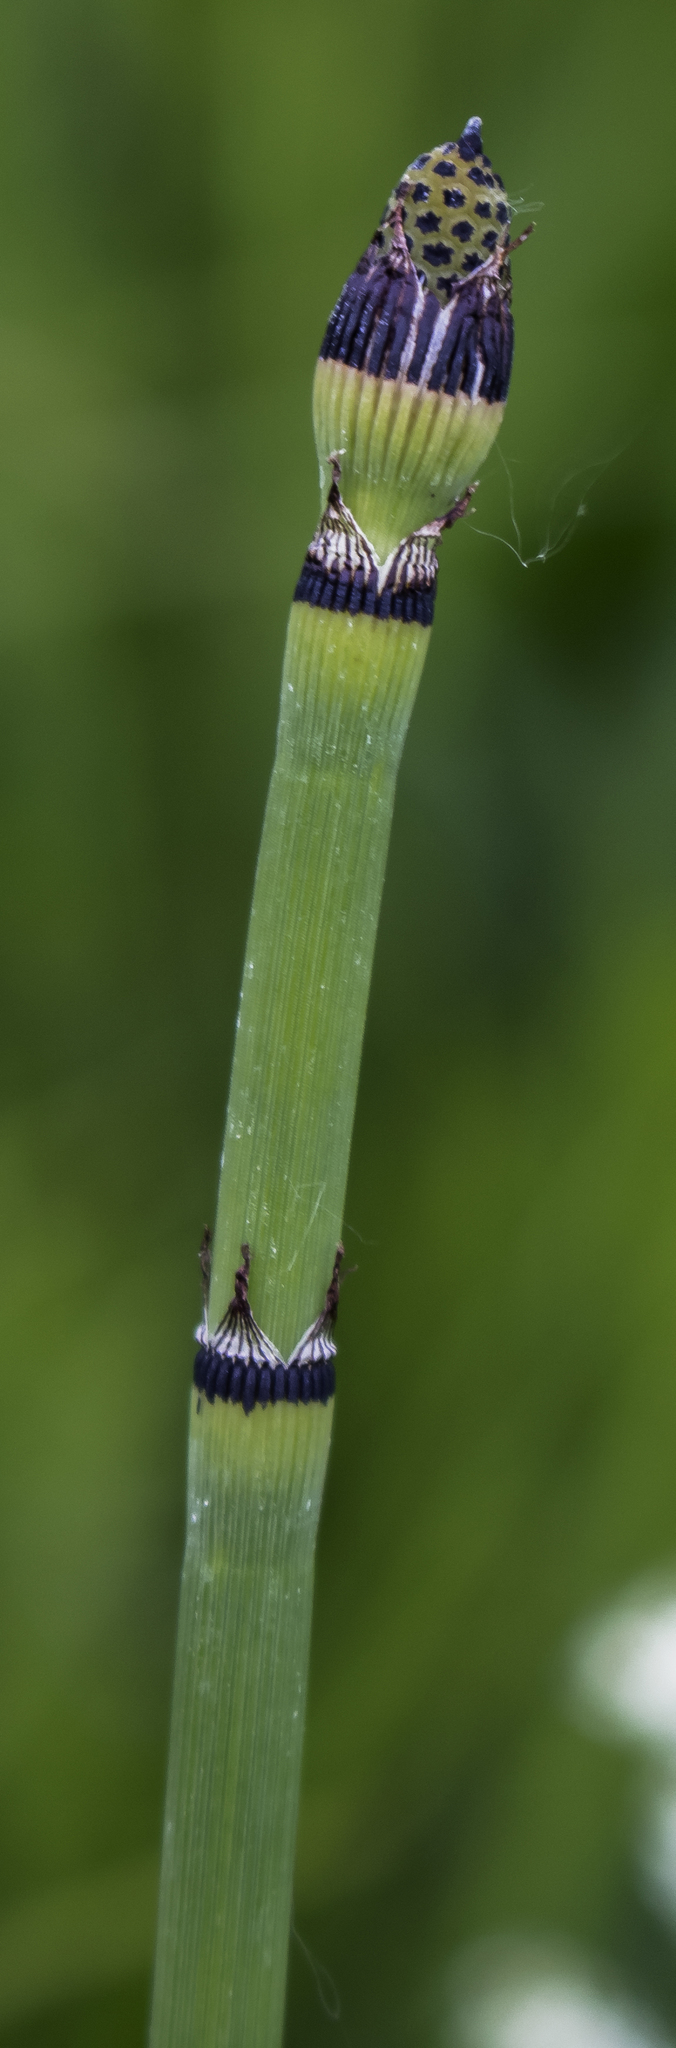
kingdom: Plantae
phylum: Tracheophyta
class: Polypodiopsida
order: Equisetales
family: Equisetaceae
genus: Equisetum
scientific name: Equisetum hyemale
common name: Rough horsetail
